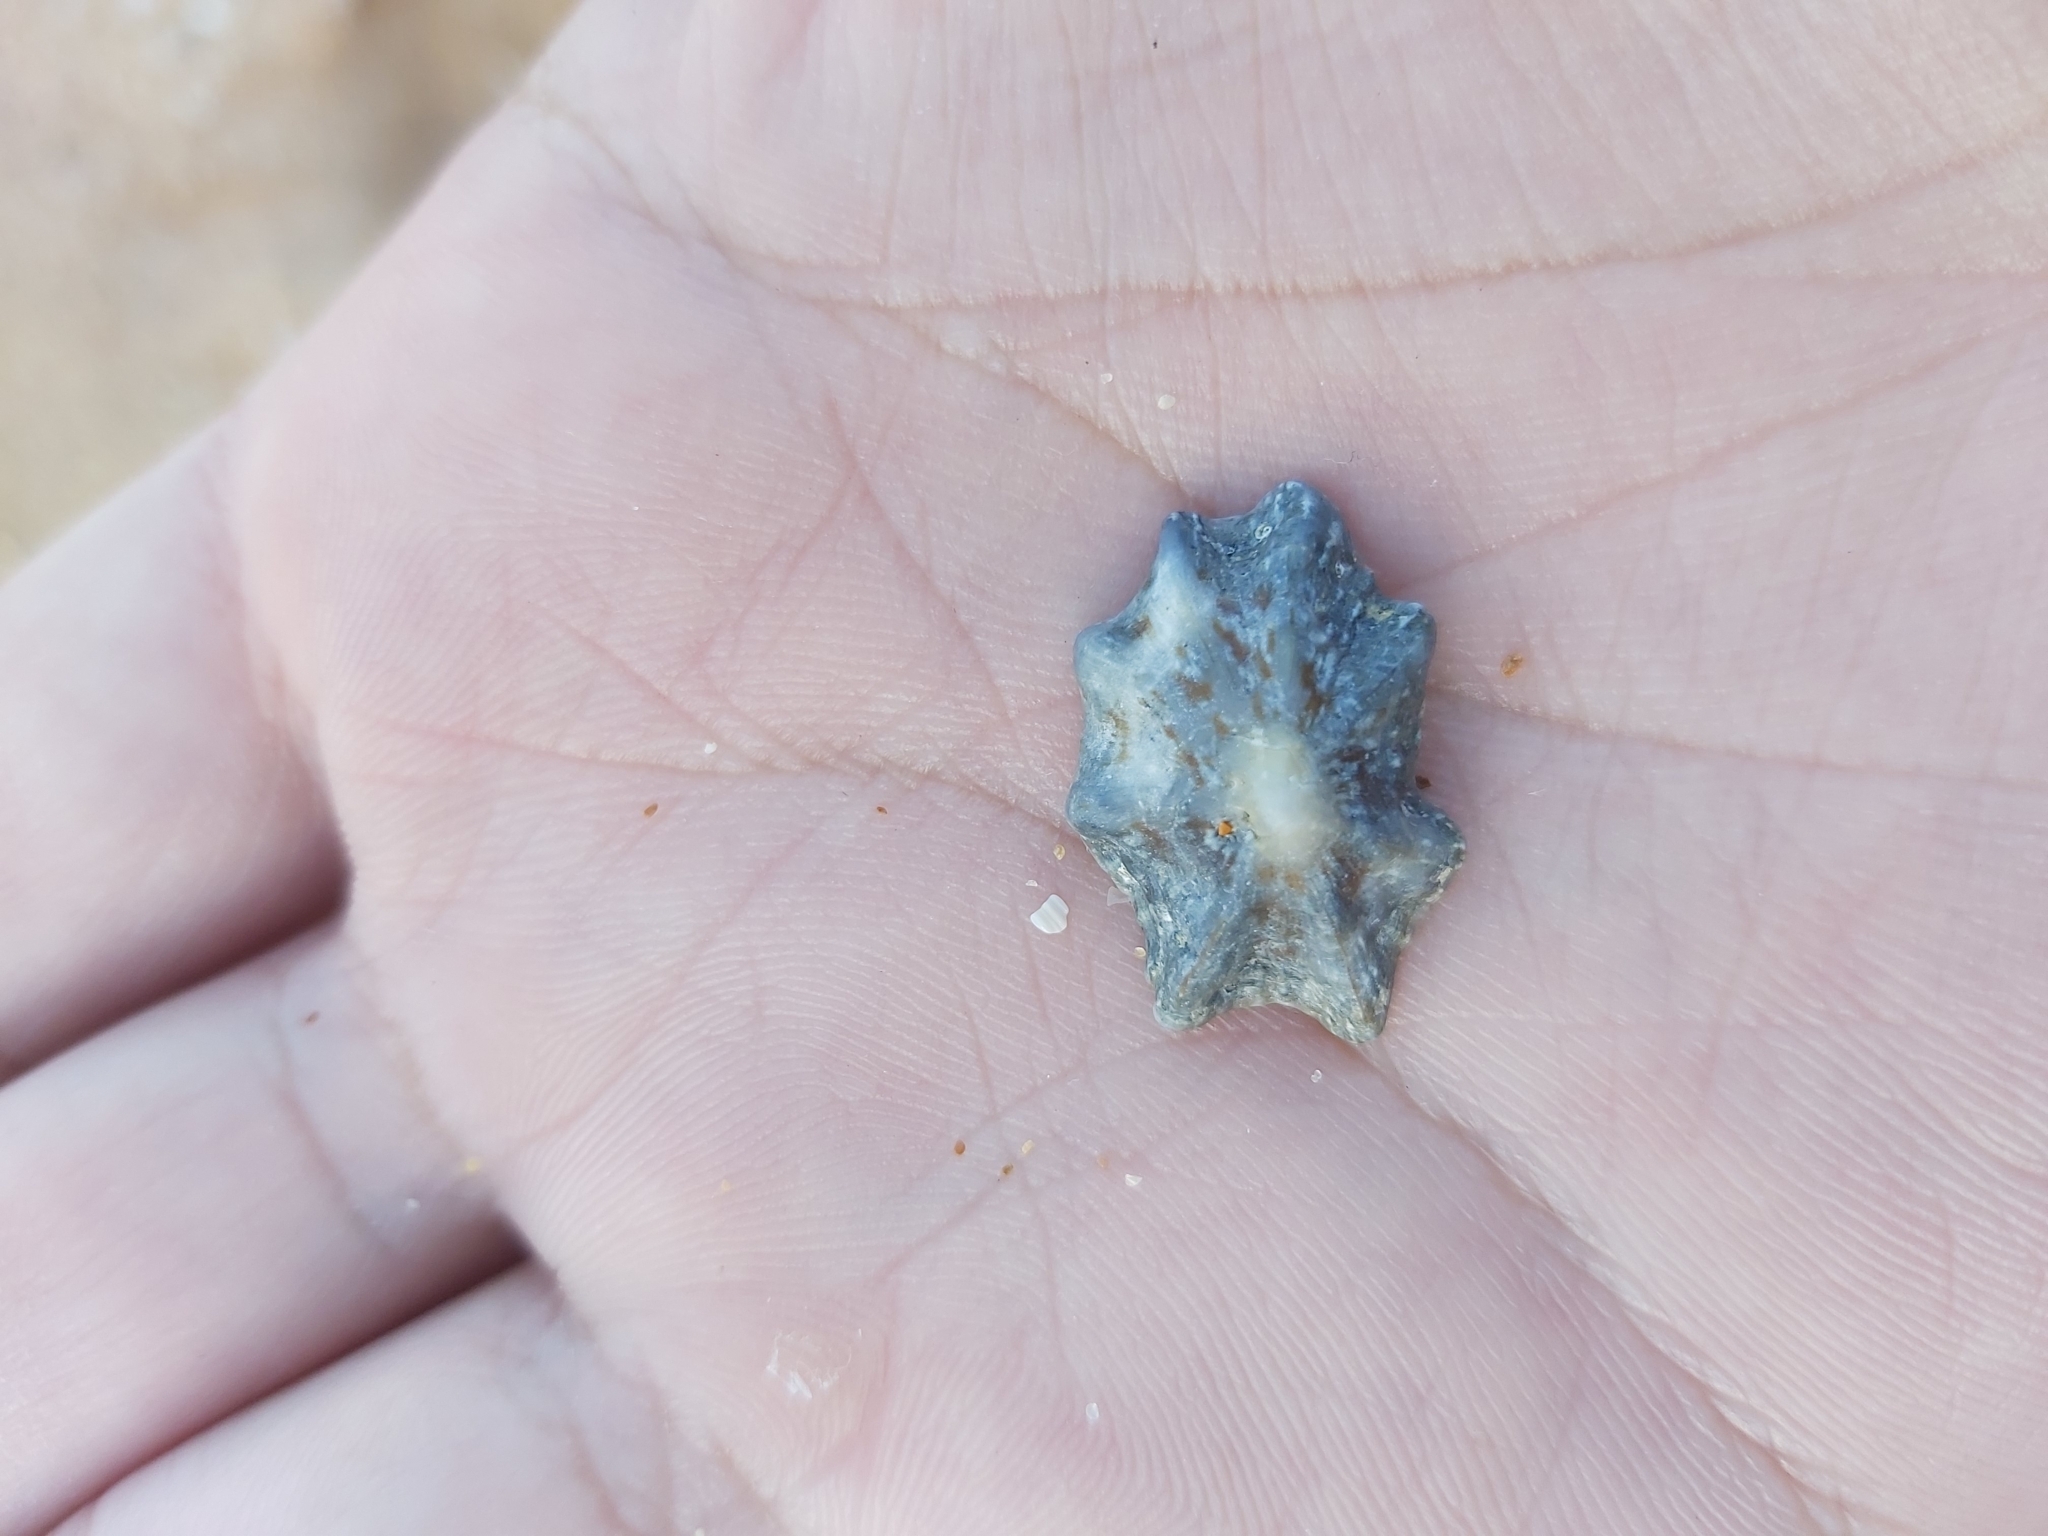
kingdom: Animalia
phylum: Mollusca
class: Gastropoda
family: Patellidae
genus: Scutellastra
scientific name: Scutellastra chapmani
